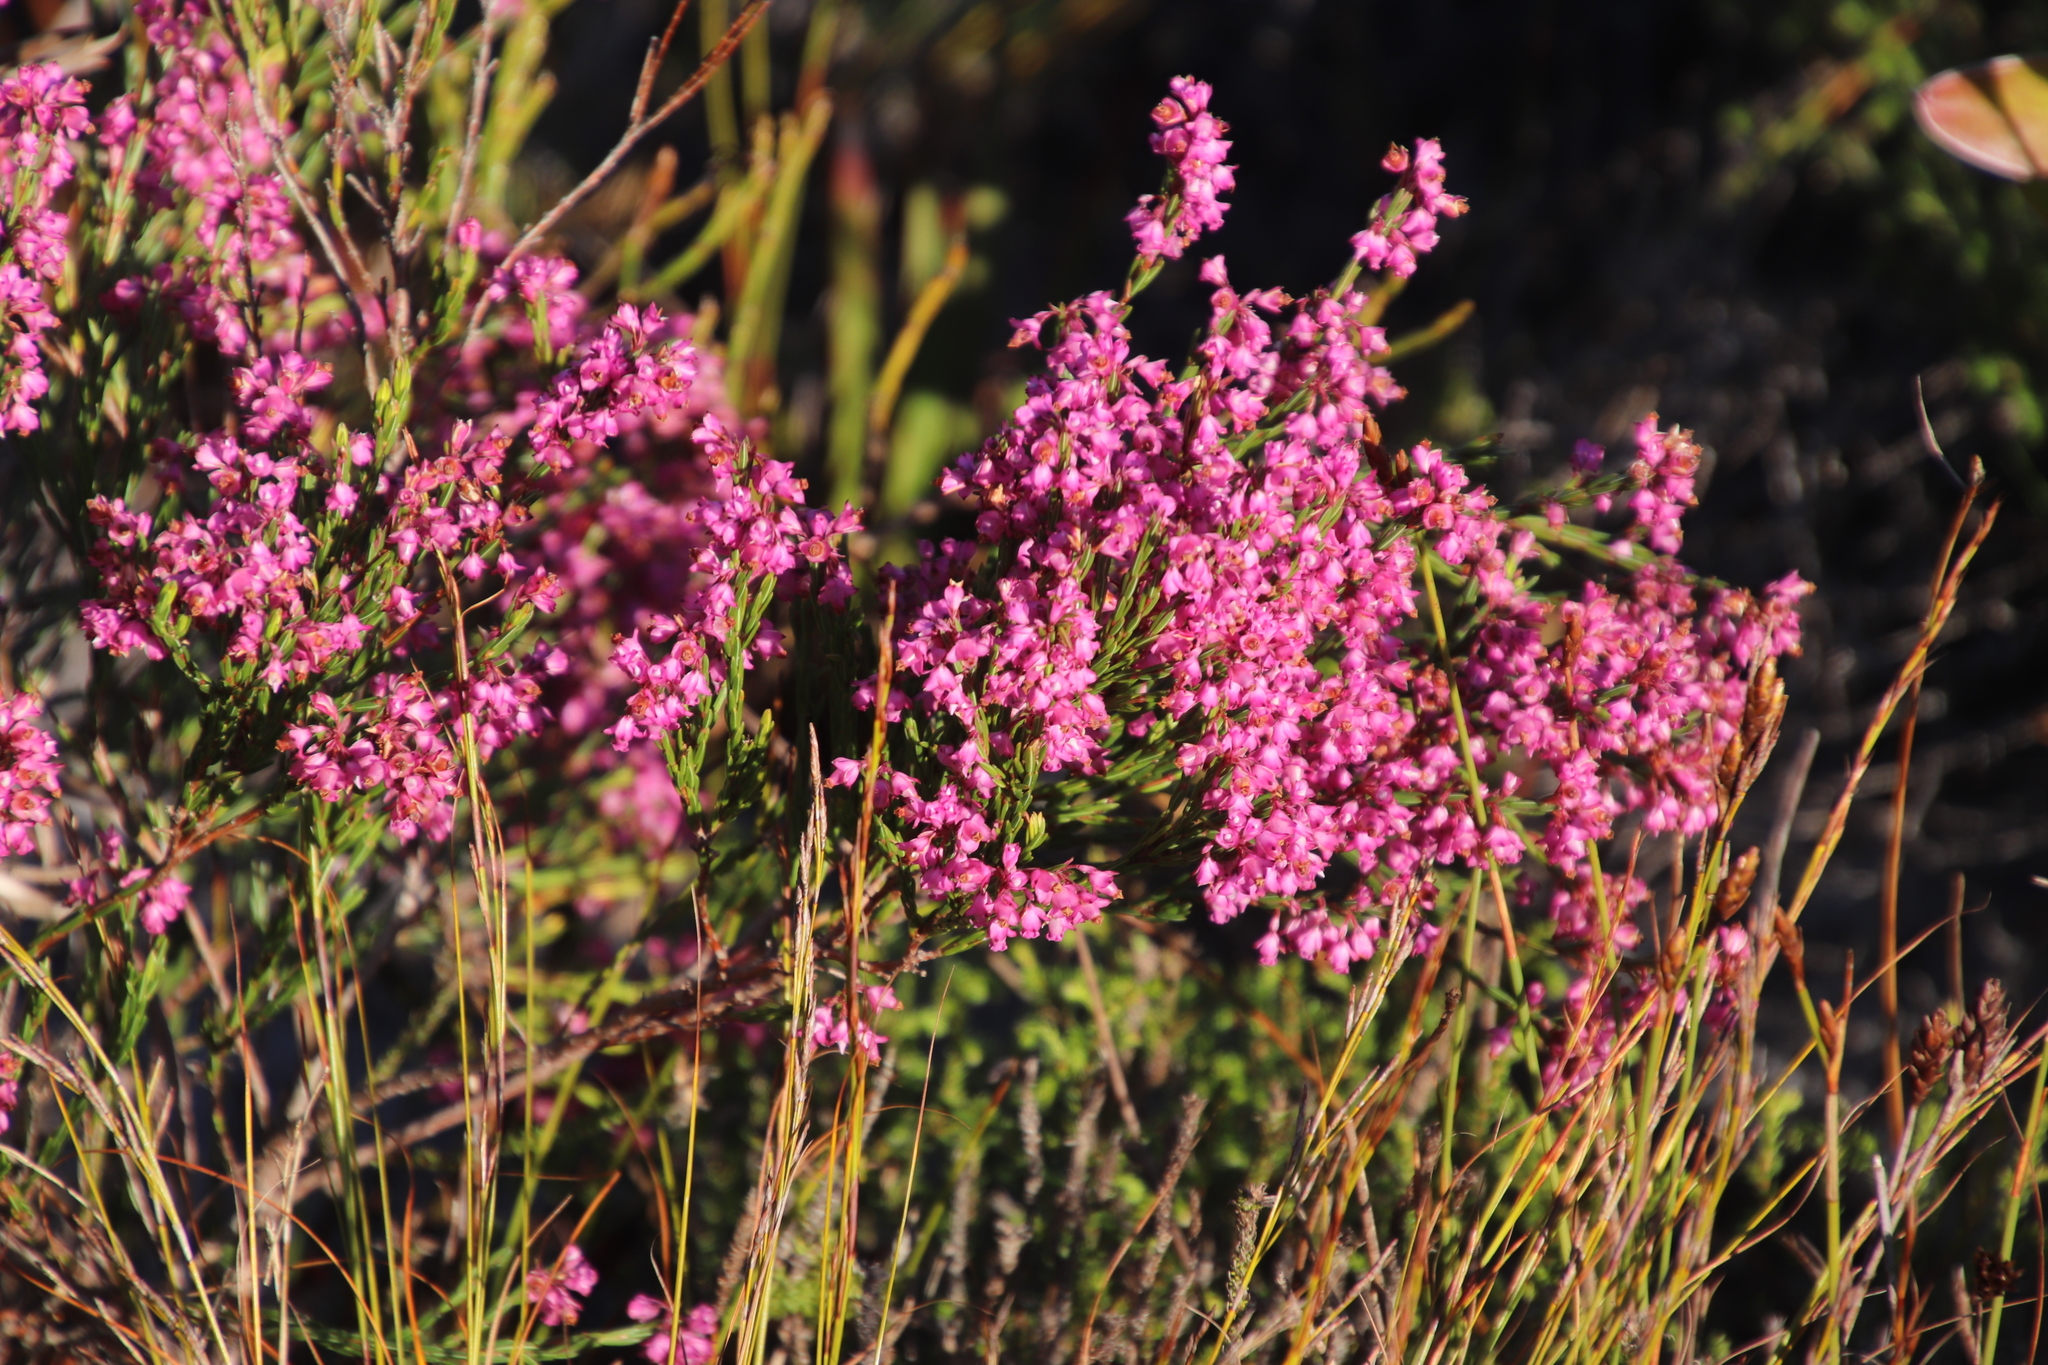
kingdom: Plantae
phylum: Tracheophyta
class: Magnoliopsida
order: Ericales
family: Ericaceae
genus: Erica
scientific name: Erica corifolia
